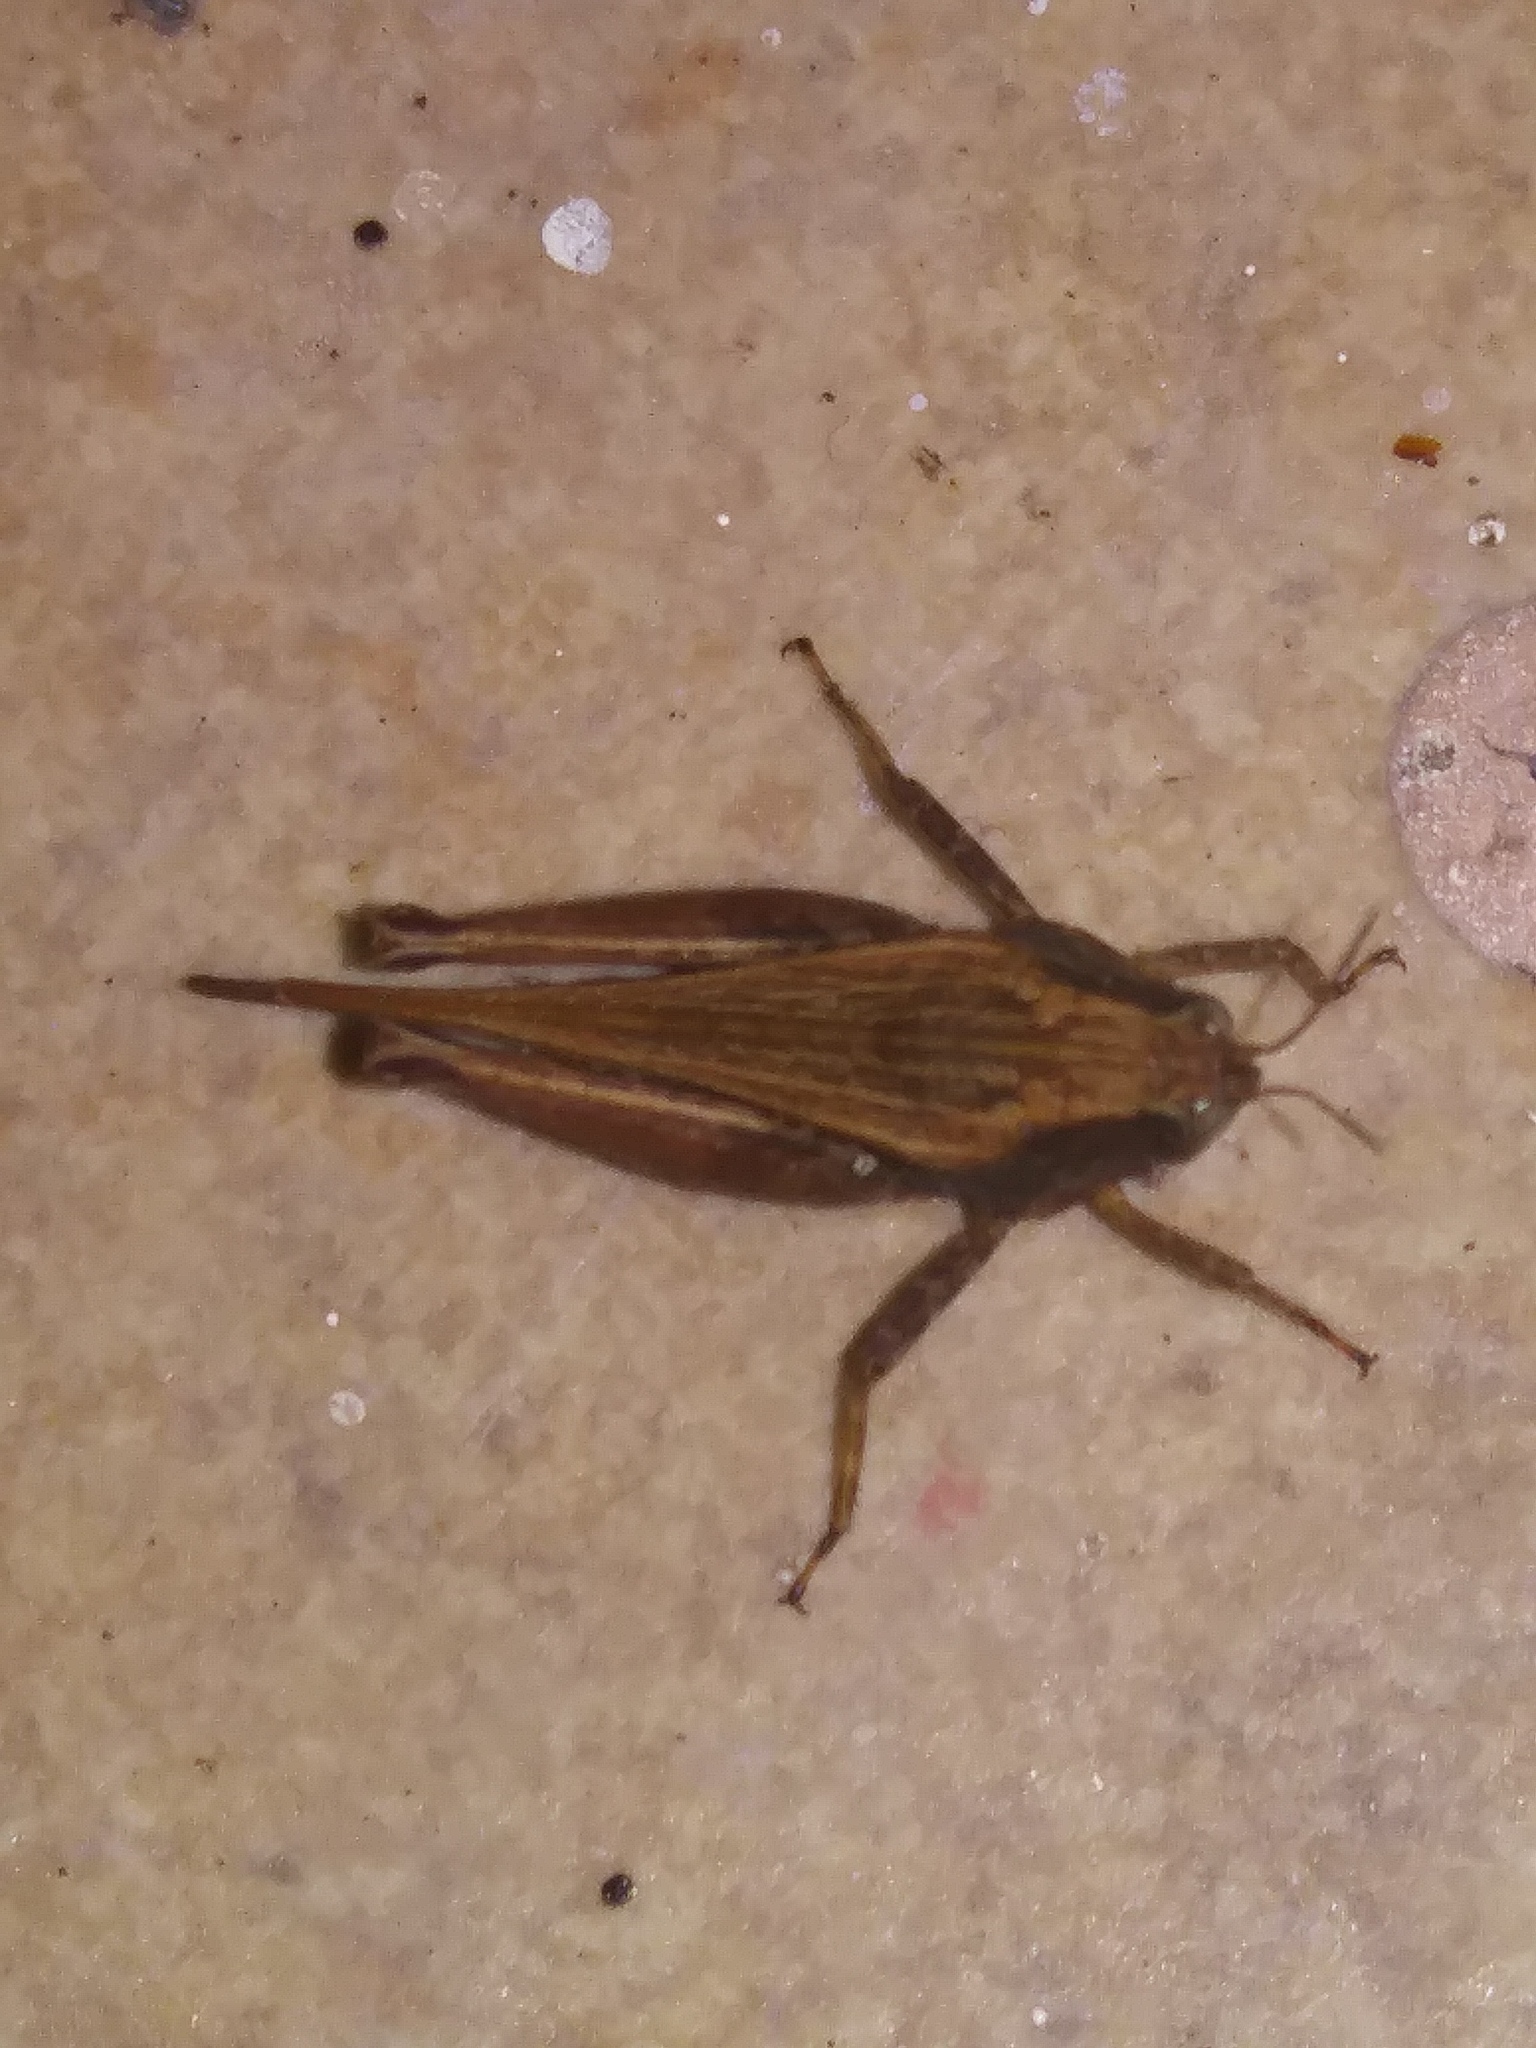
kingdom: Animalia
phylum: Arthropoda
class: Insecta
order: Orthoptera
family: Tetrigidae
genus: Tettigidea
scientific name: Tettigidea laterale
